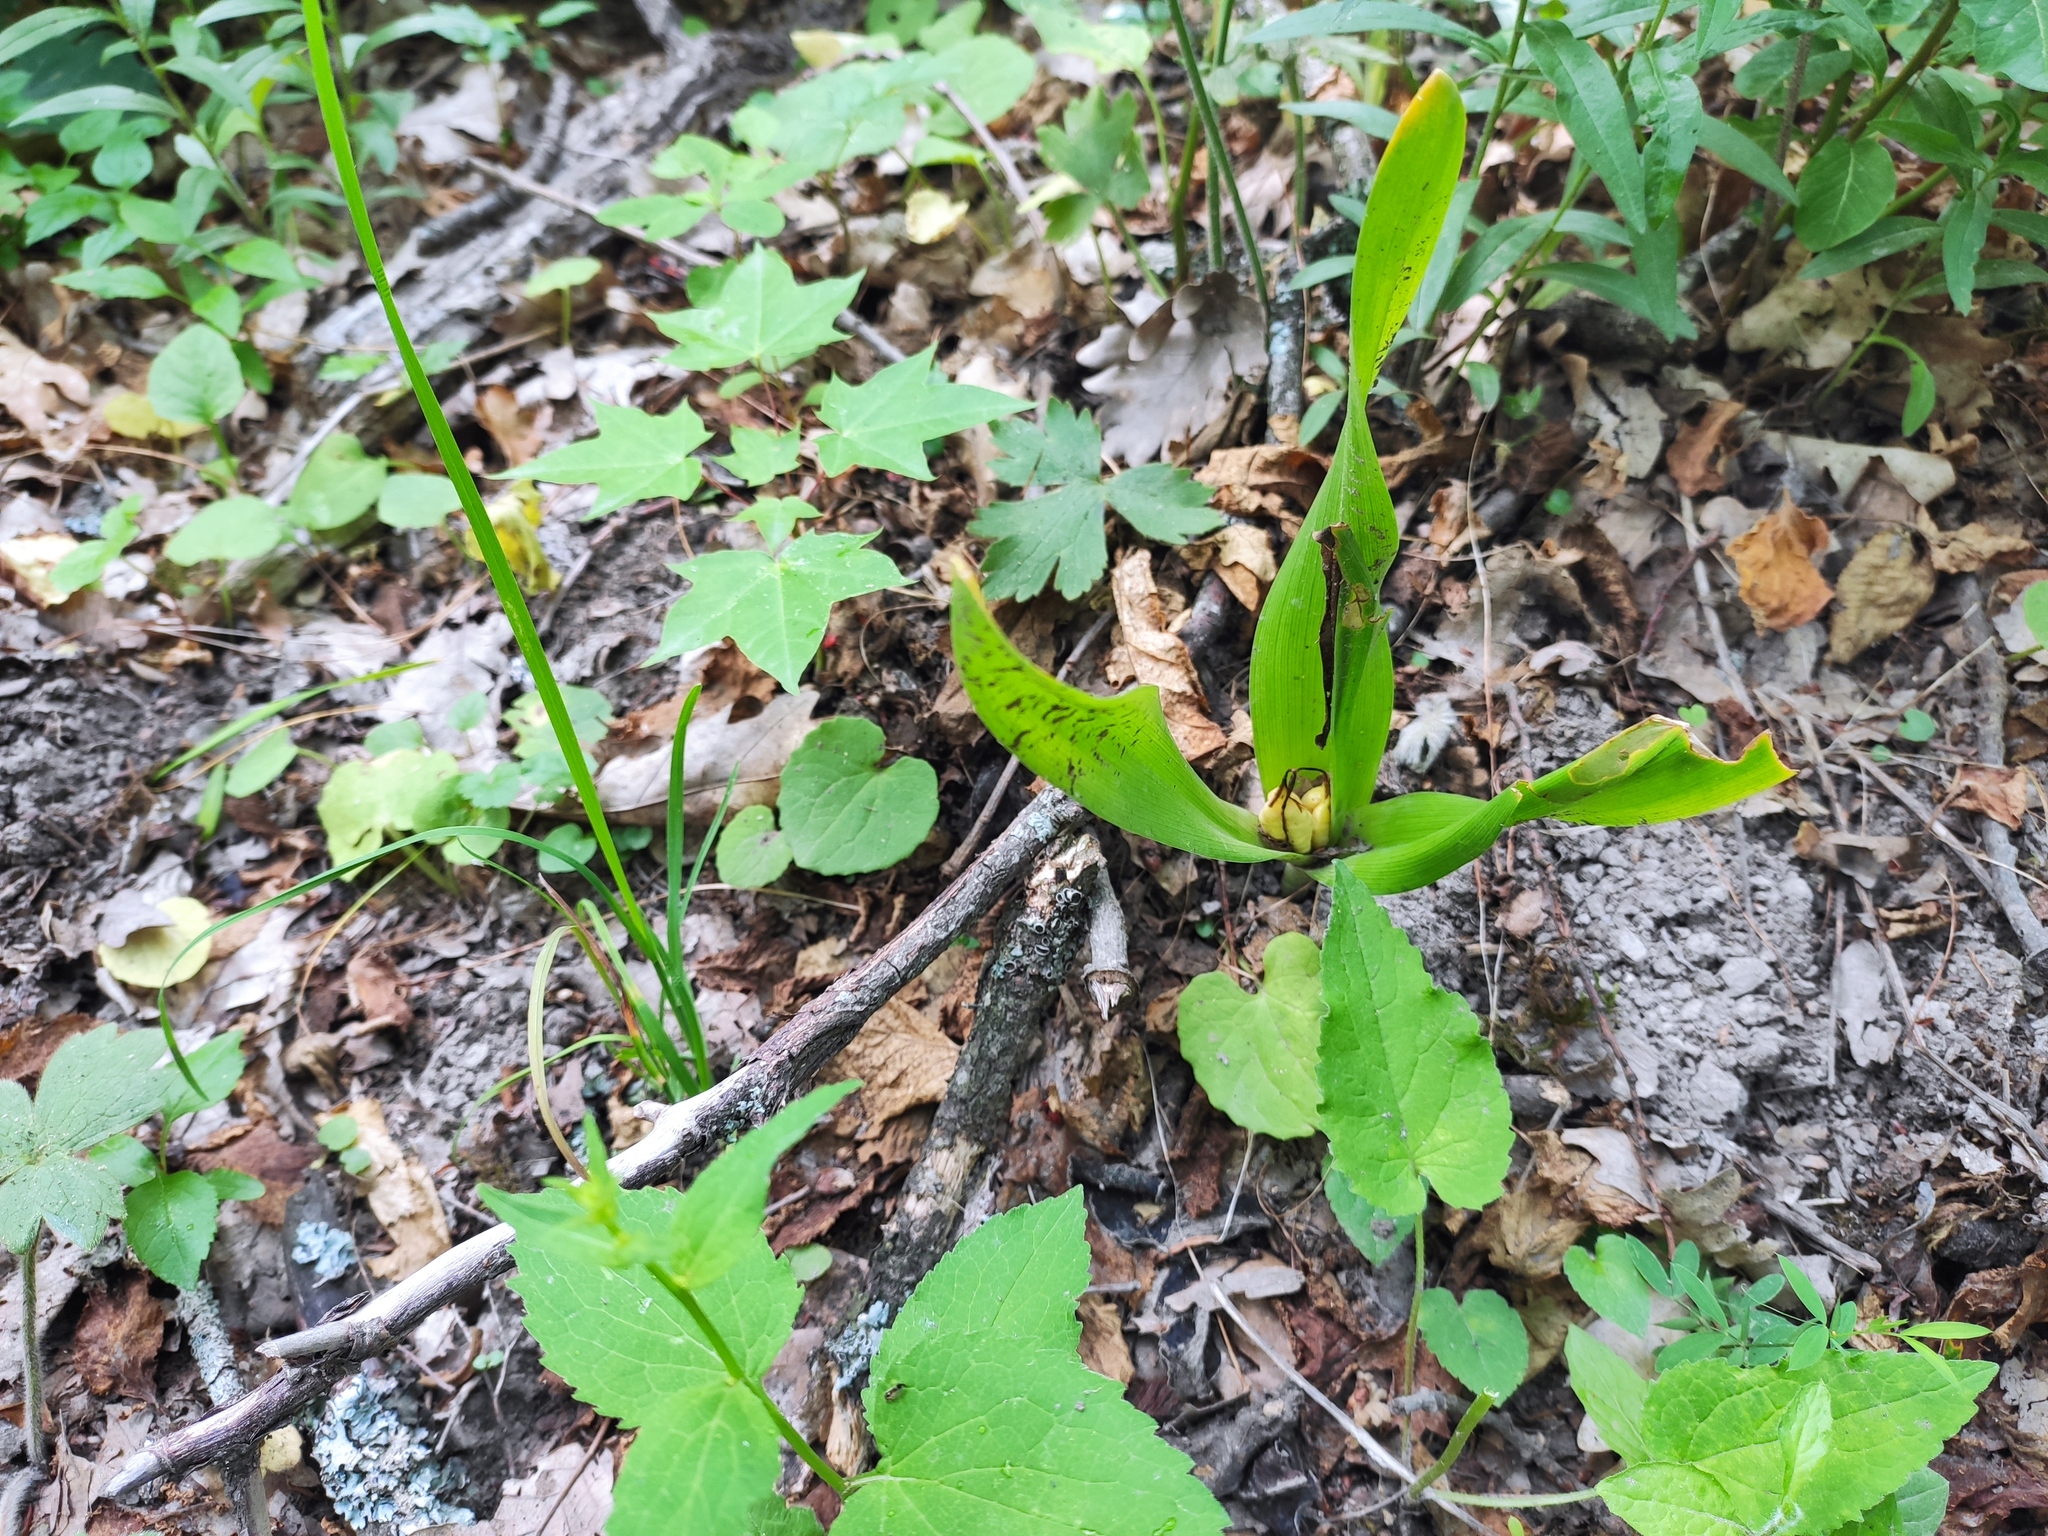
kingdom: Plantae
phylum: Tracheophyta
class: Liliopsida
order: Liliales
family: Colchicaceae
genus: Colchicum
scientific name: Colchicum umbrosum
